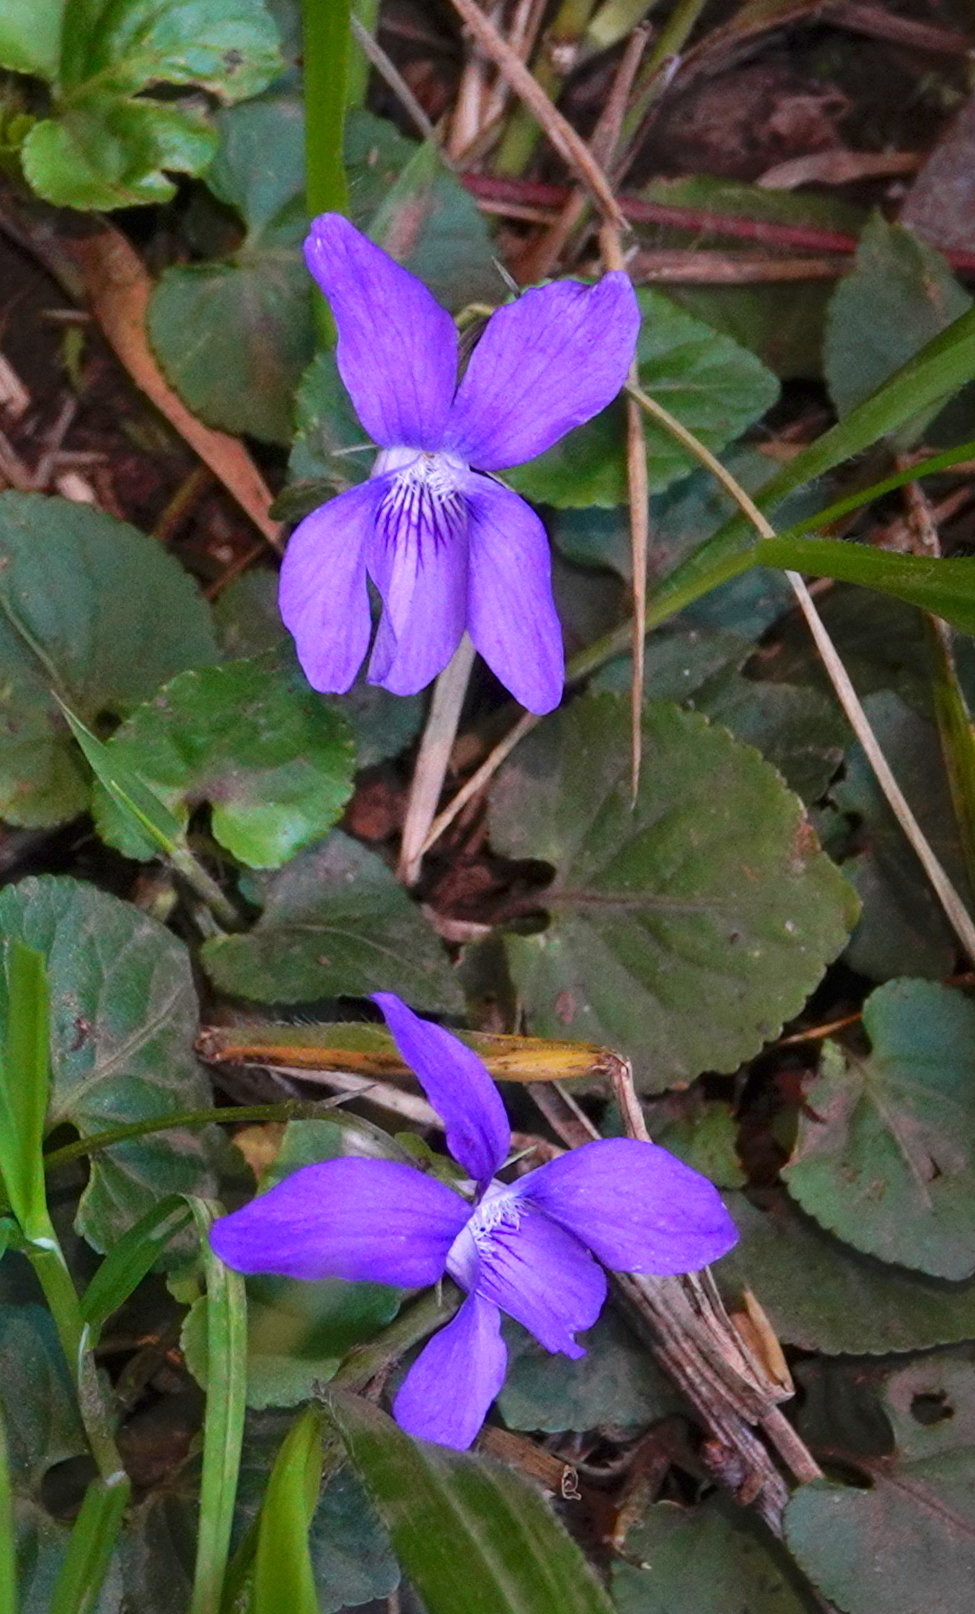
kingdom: Plantae
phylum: Tracheophyta
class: Magnoliopsida
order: Malpighiales
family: Violaceae
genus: Viola
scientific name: Viola riviniana
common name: Common dog-violet
